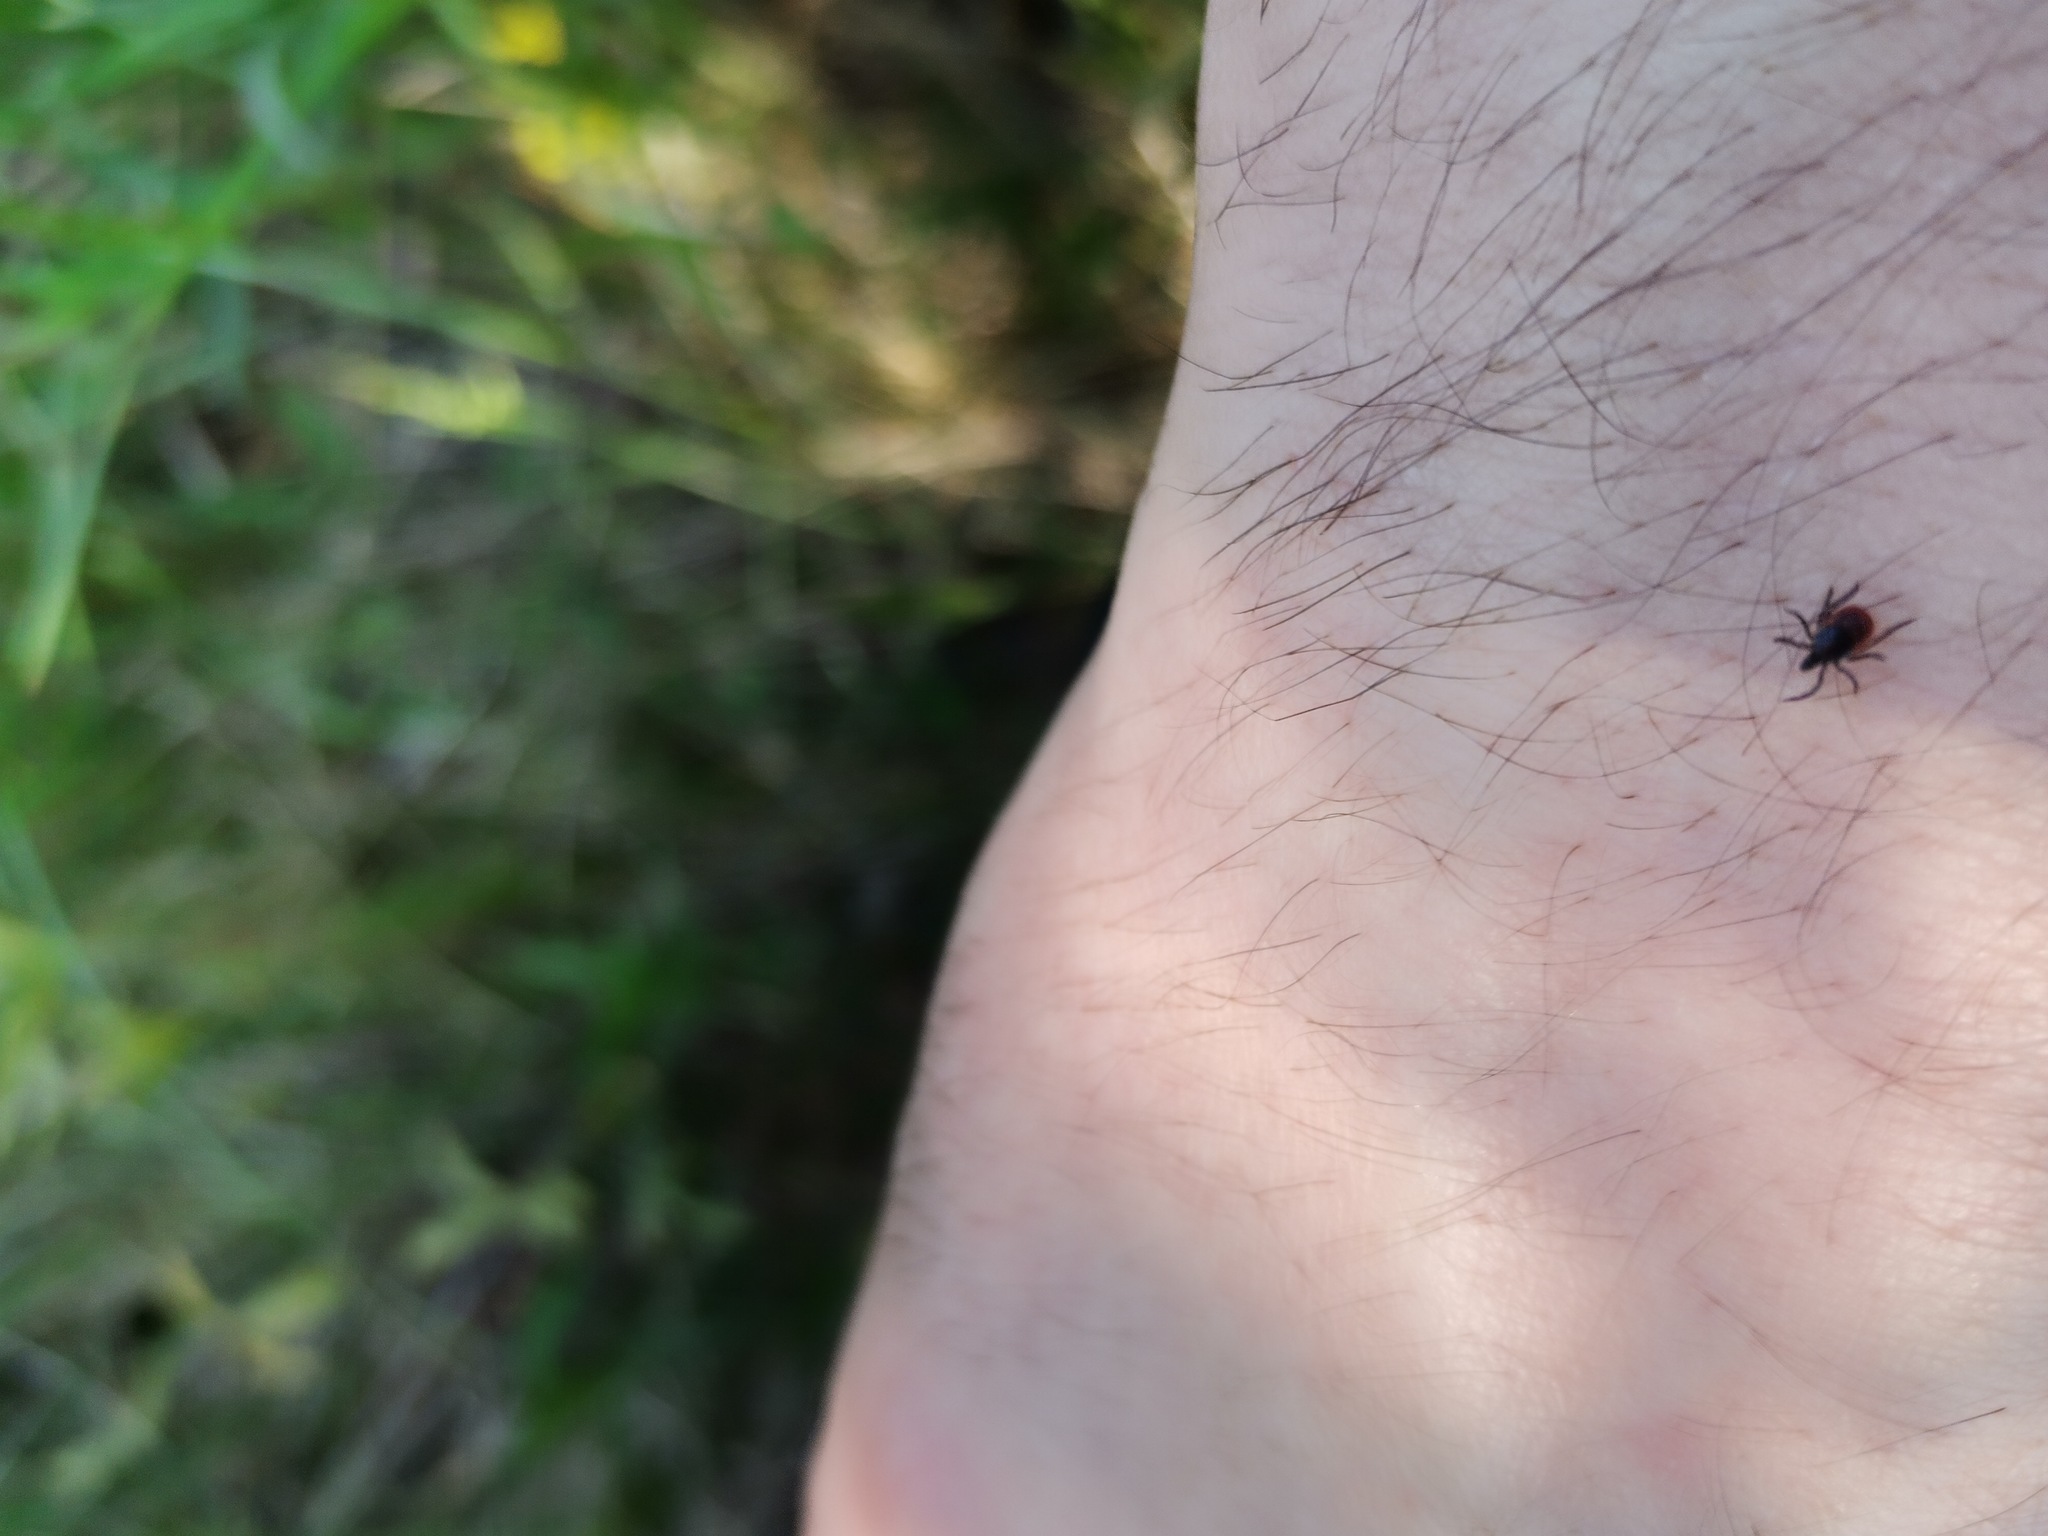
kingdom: Animalia
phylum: Arthropoda
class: Arachnida
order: Ixodida
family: Ixodidae
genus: Ixodes
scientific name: Ixodes ricinus
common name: Castor bean tick
